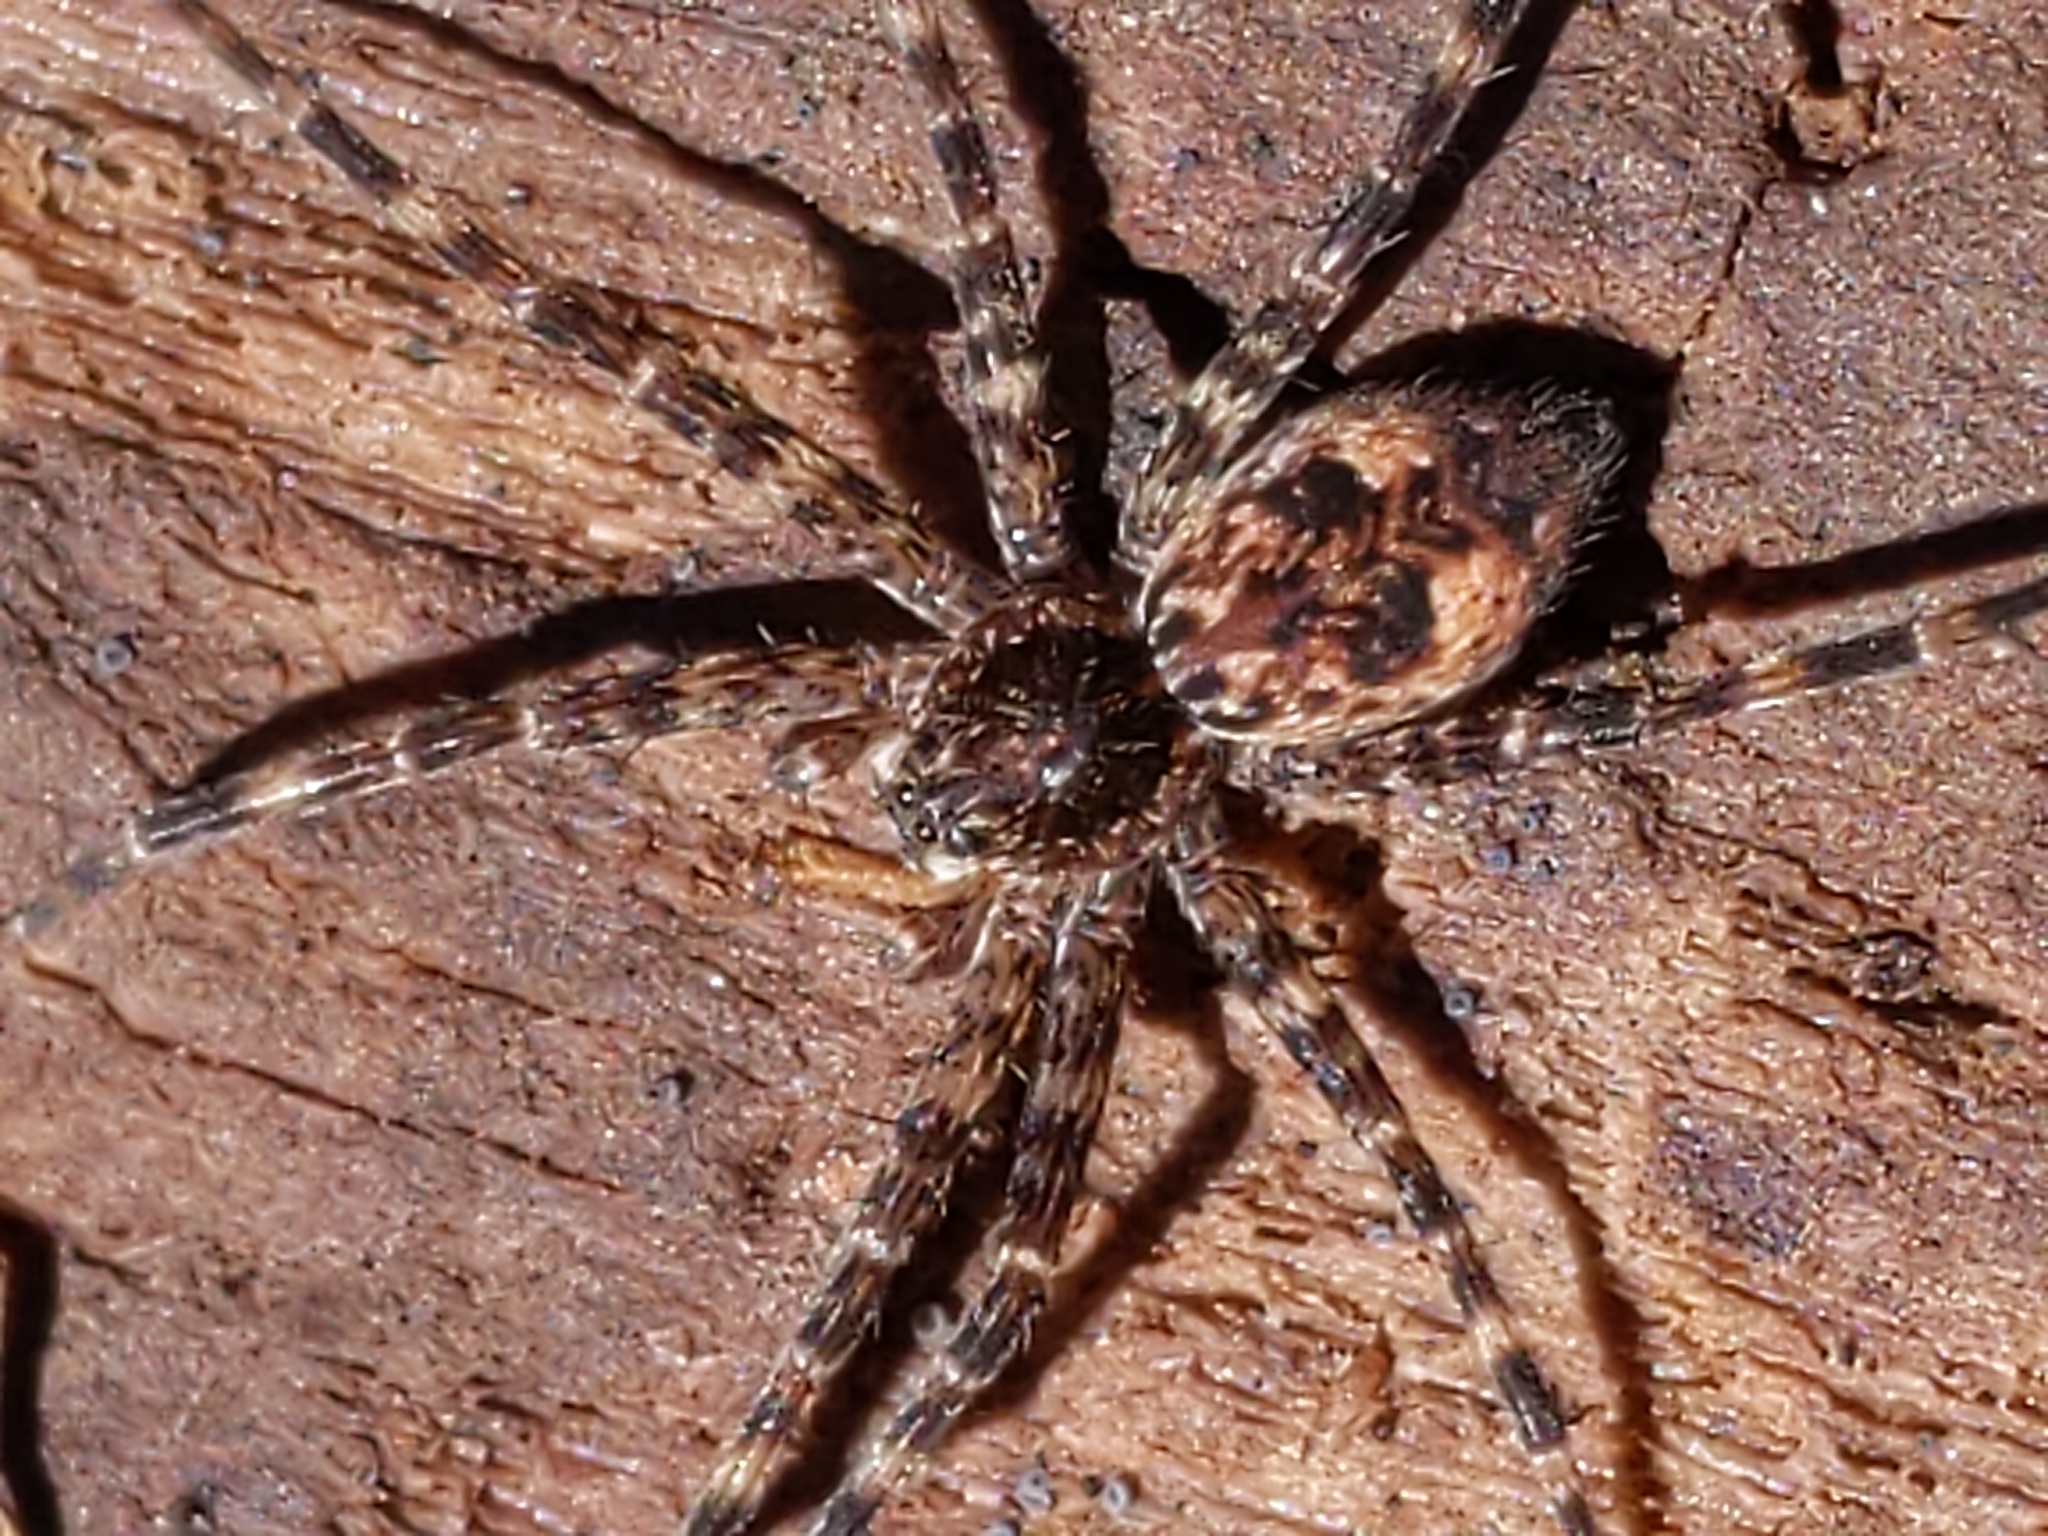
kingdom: Animalia
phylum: Arthropoda
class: Arachnida
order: Araneae
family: Pisauridae
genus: Dolomedes
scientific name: Dolomedes tenebrosus
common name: Dark fishing spider
